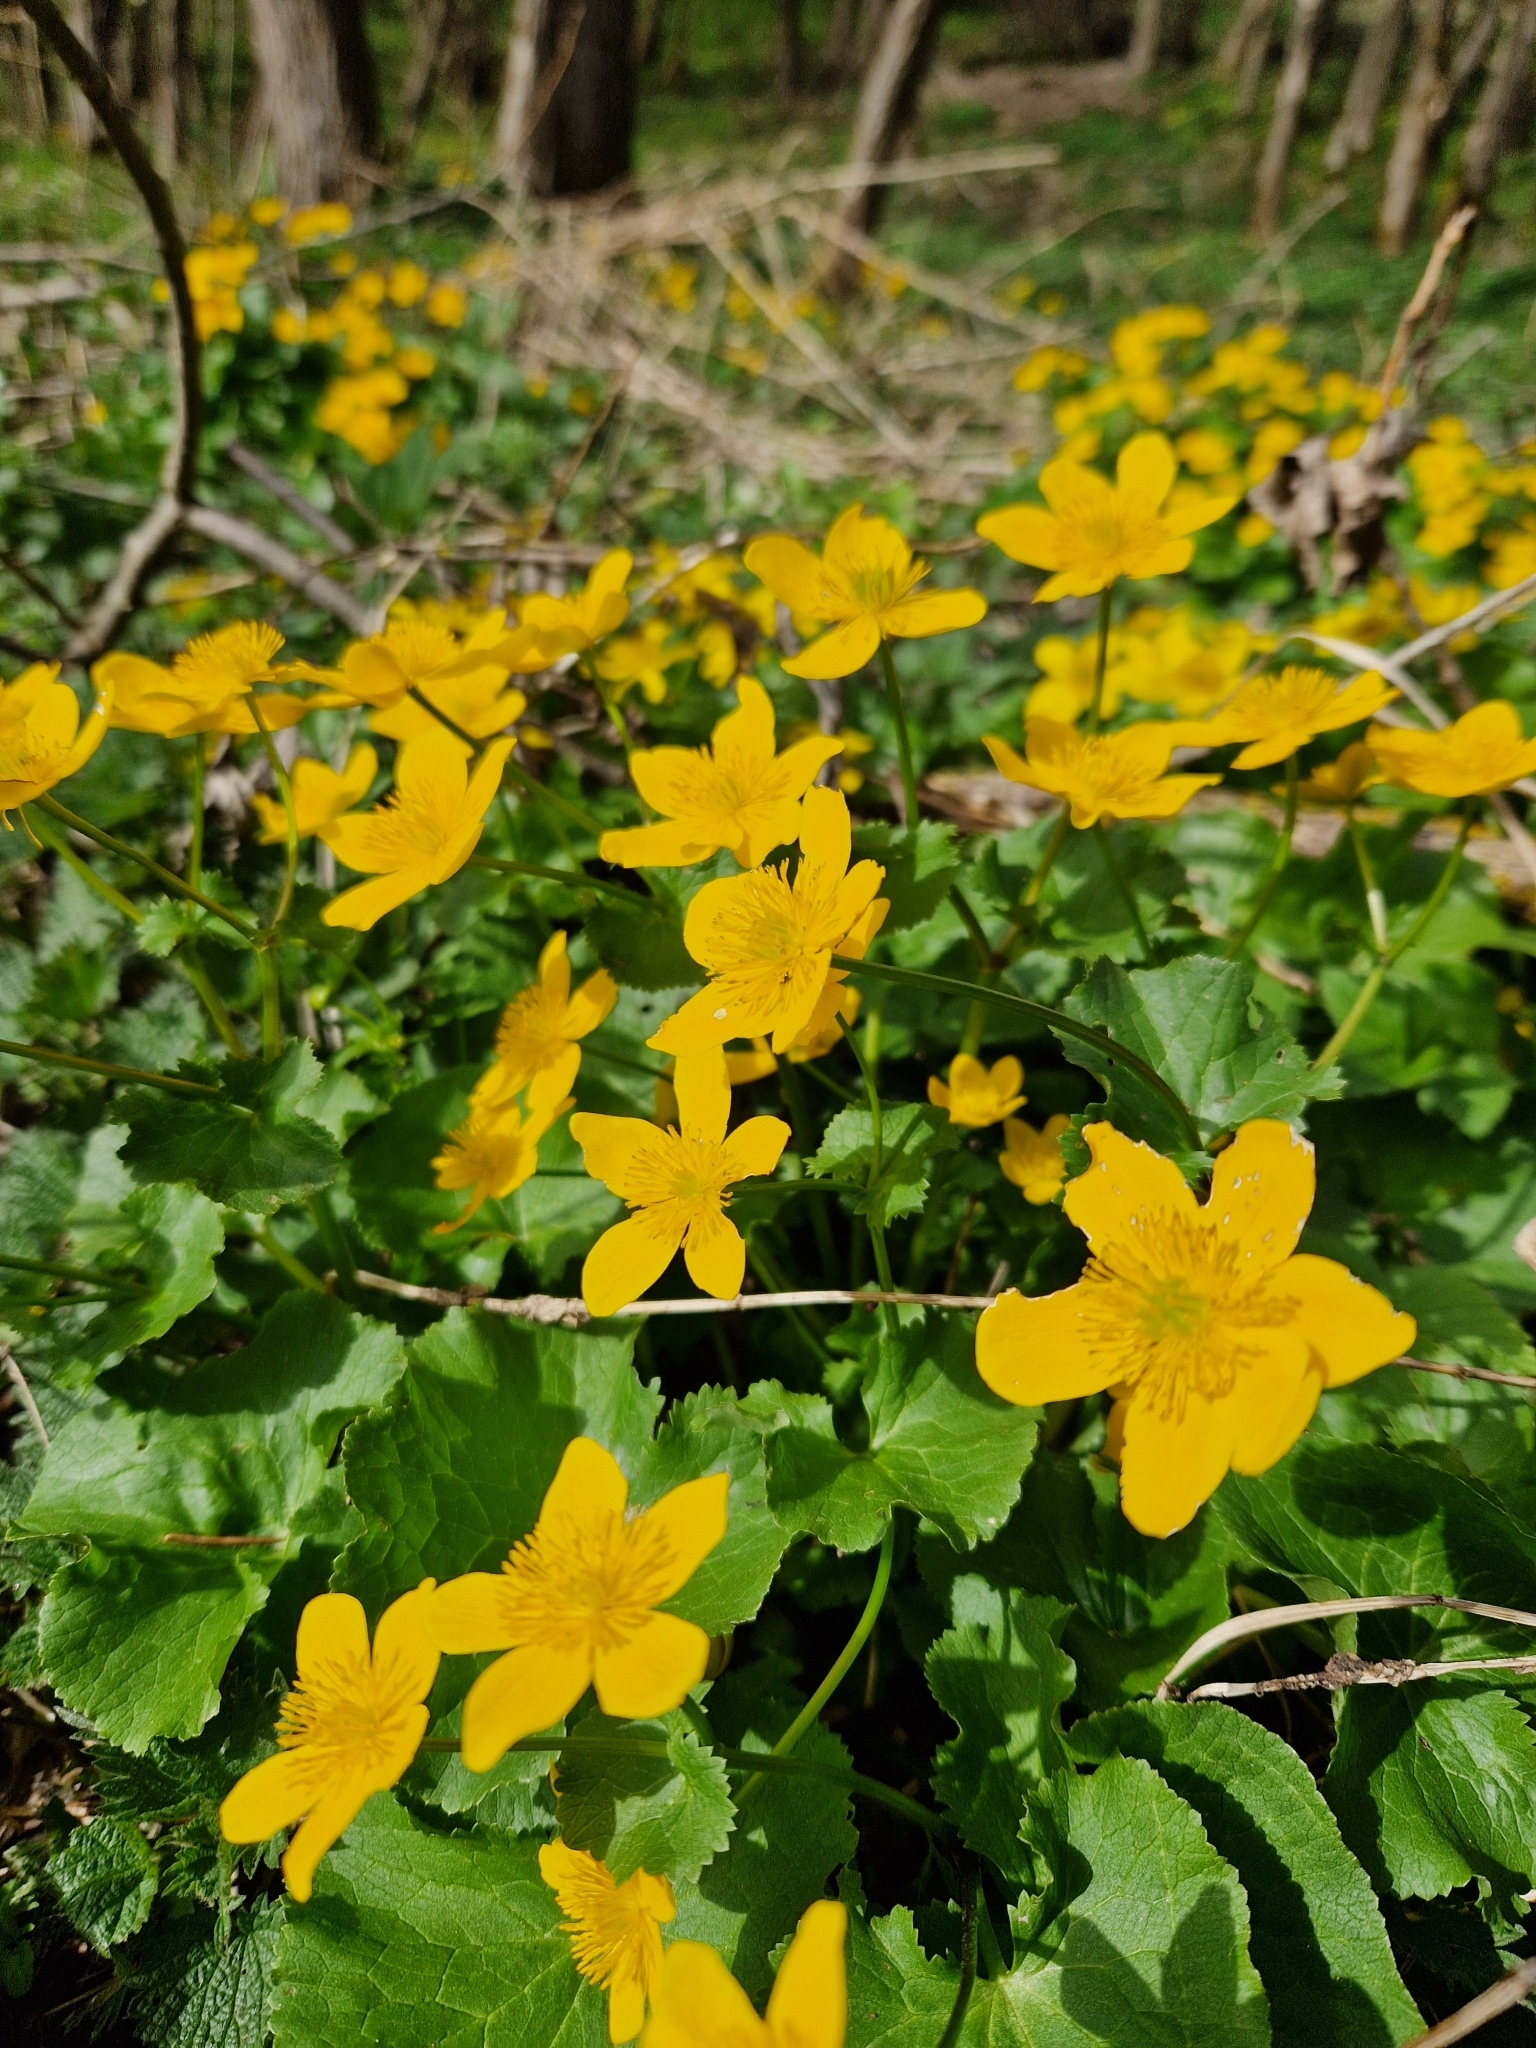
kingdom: Plantae
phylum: Tracheophyta
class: Magnoliopsida
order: Ranunculales
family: Ranunculaceae
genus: Caltha
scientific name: Caltha palustris
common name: Marsh marigold
